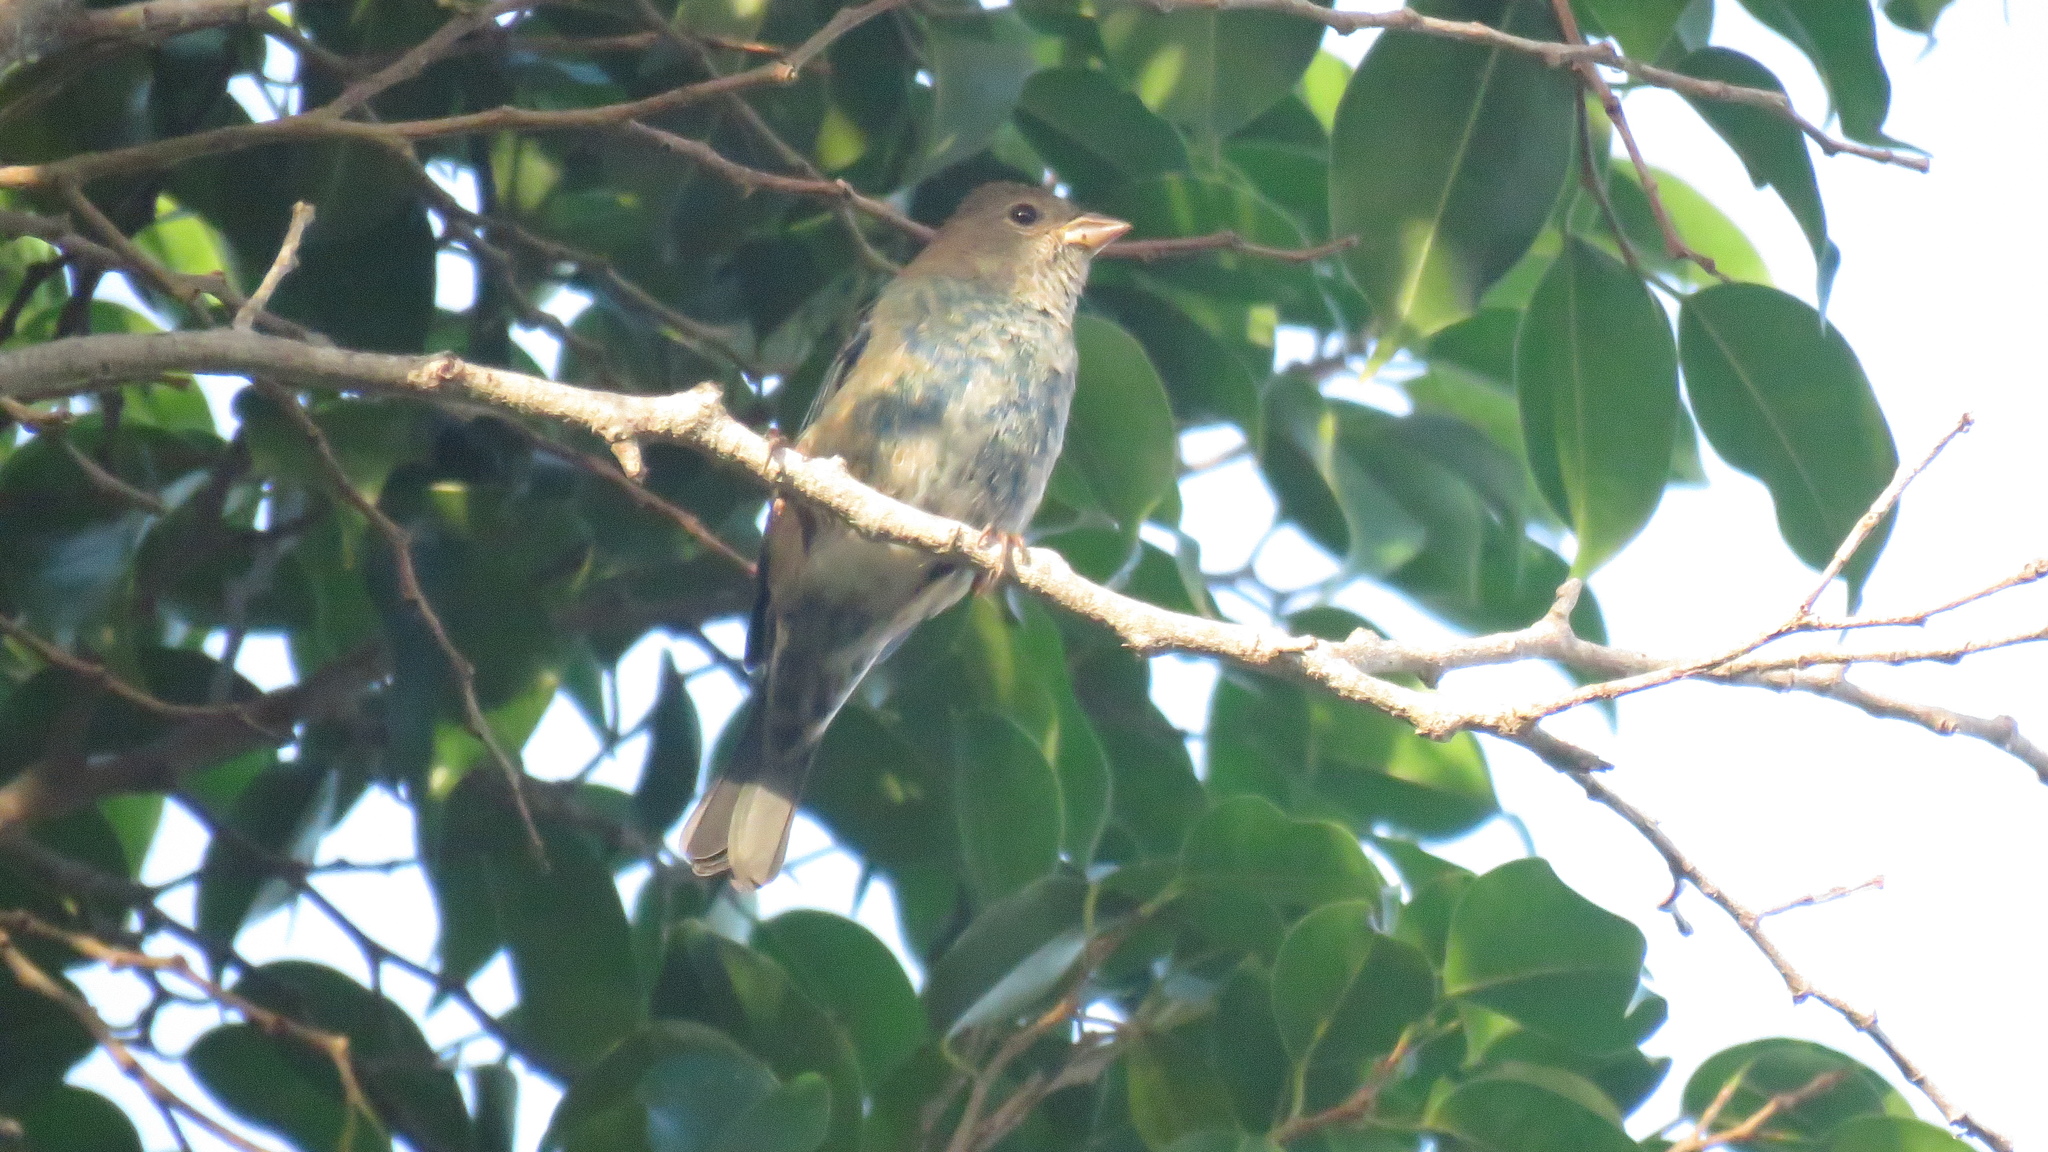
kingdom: Animalia
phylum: Chordata
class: Aves
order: Passeriformes
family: Cardinalidae
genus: Passerina
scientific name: Passerina cyanea
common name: Indigo bunting
